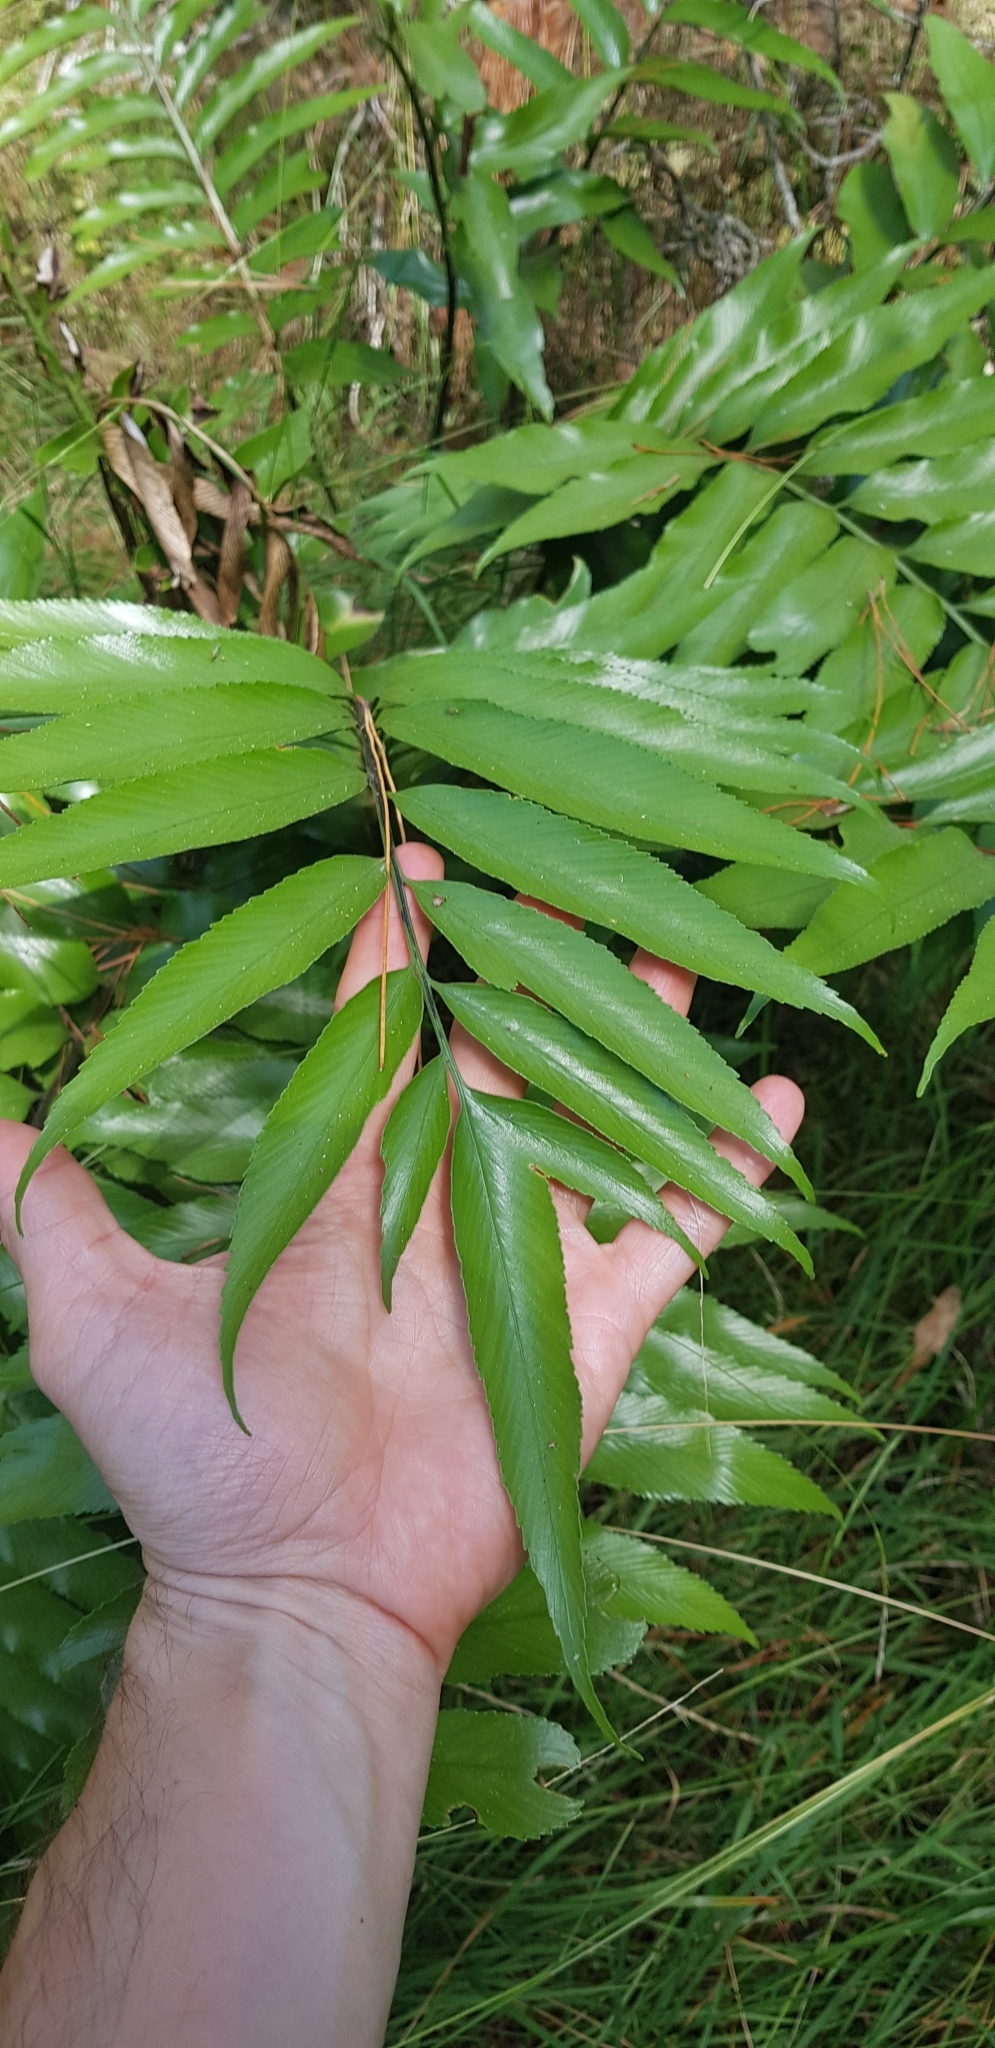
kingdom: Plantae
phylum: Tracheophyta
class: Polypodiopsida
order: Polypodiales
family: Aspleniaceae
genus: Asplenium
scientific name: Asplenium oblongifolium
